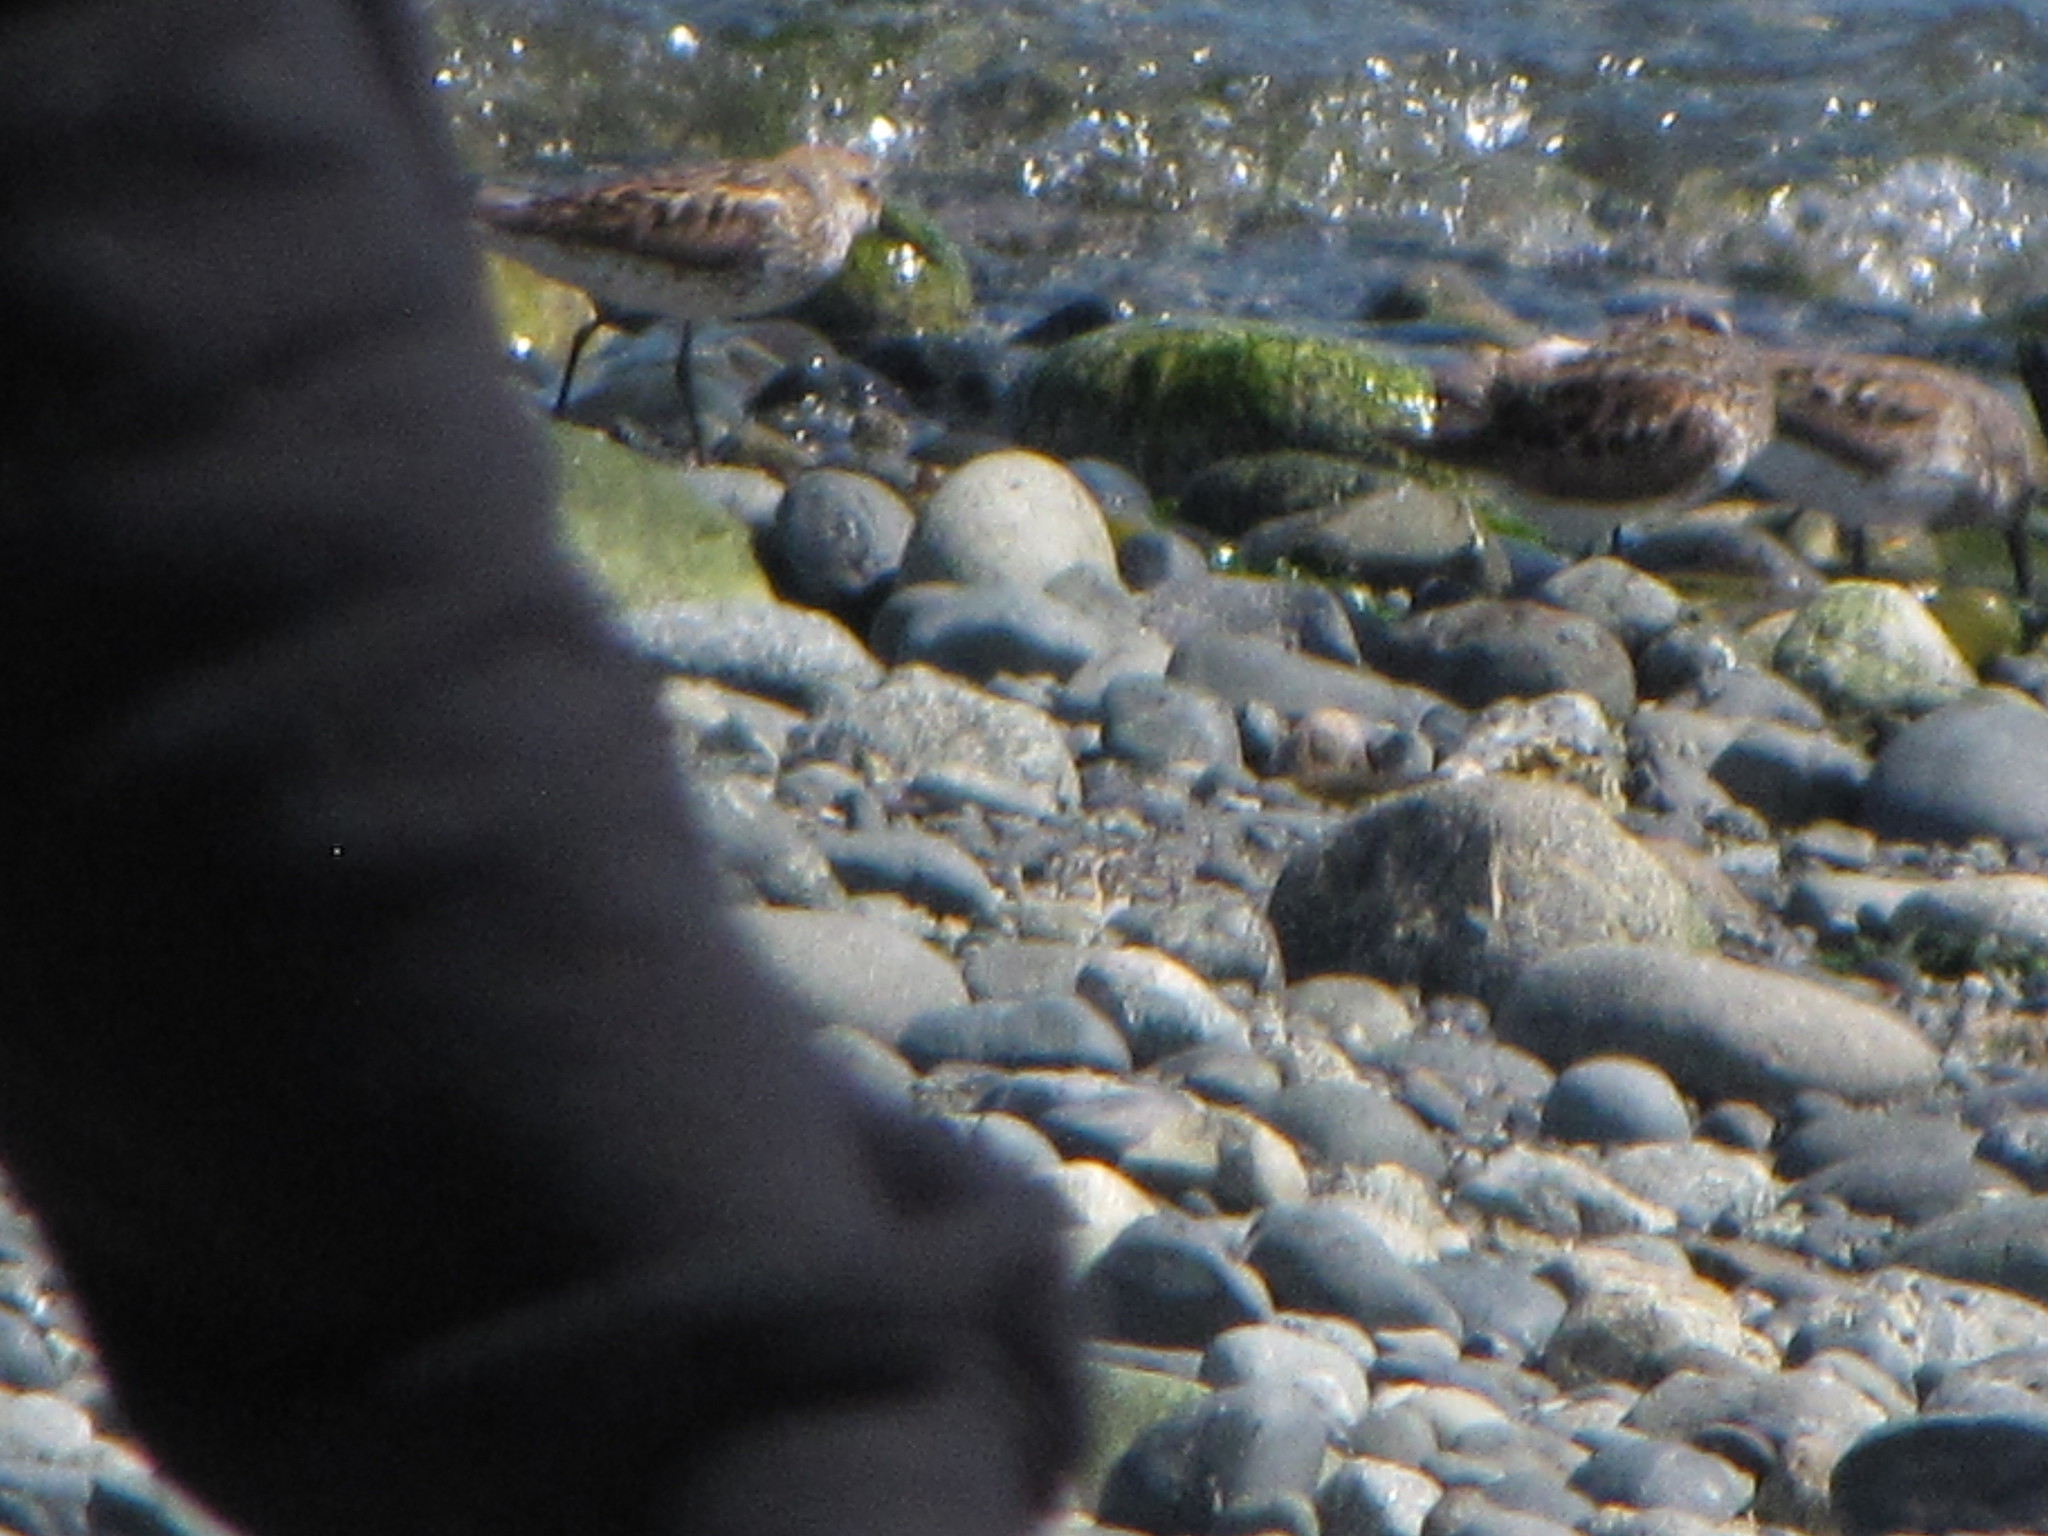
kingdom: Animalia
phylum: Chordata
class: Aves
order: Charadriiformes
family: Scolopacidae
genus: Calidris
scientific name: Calidris mauri
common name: Western sandpiper
